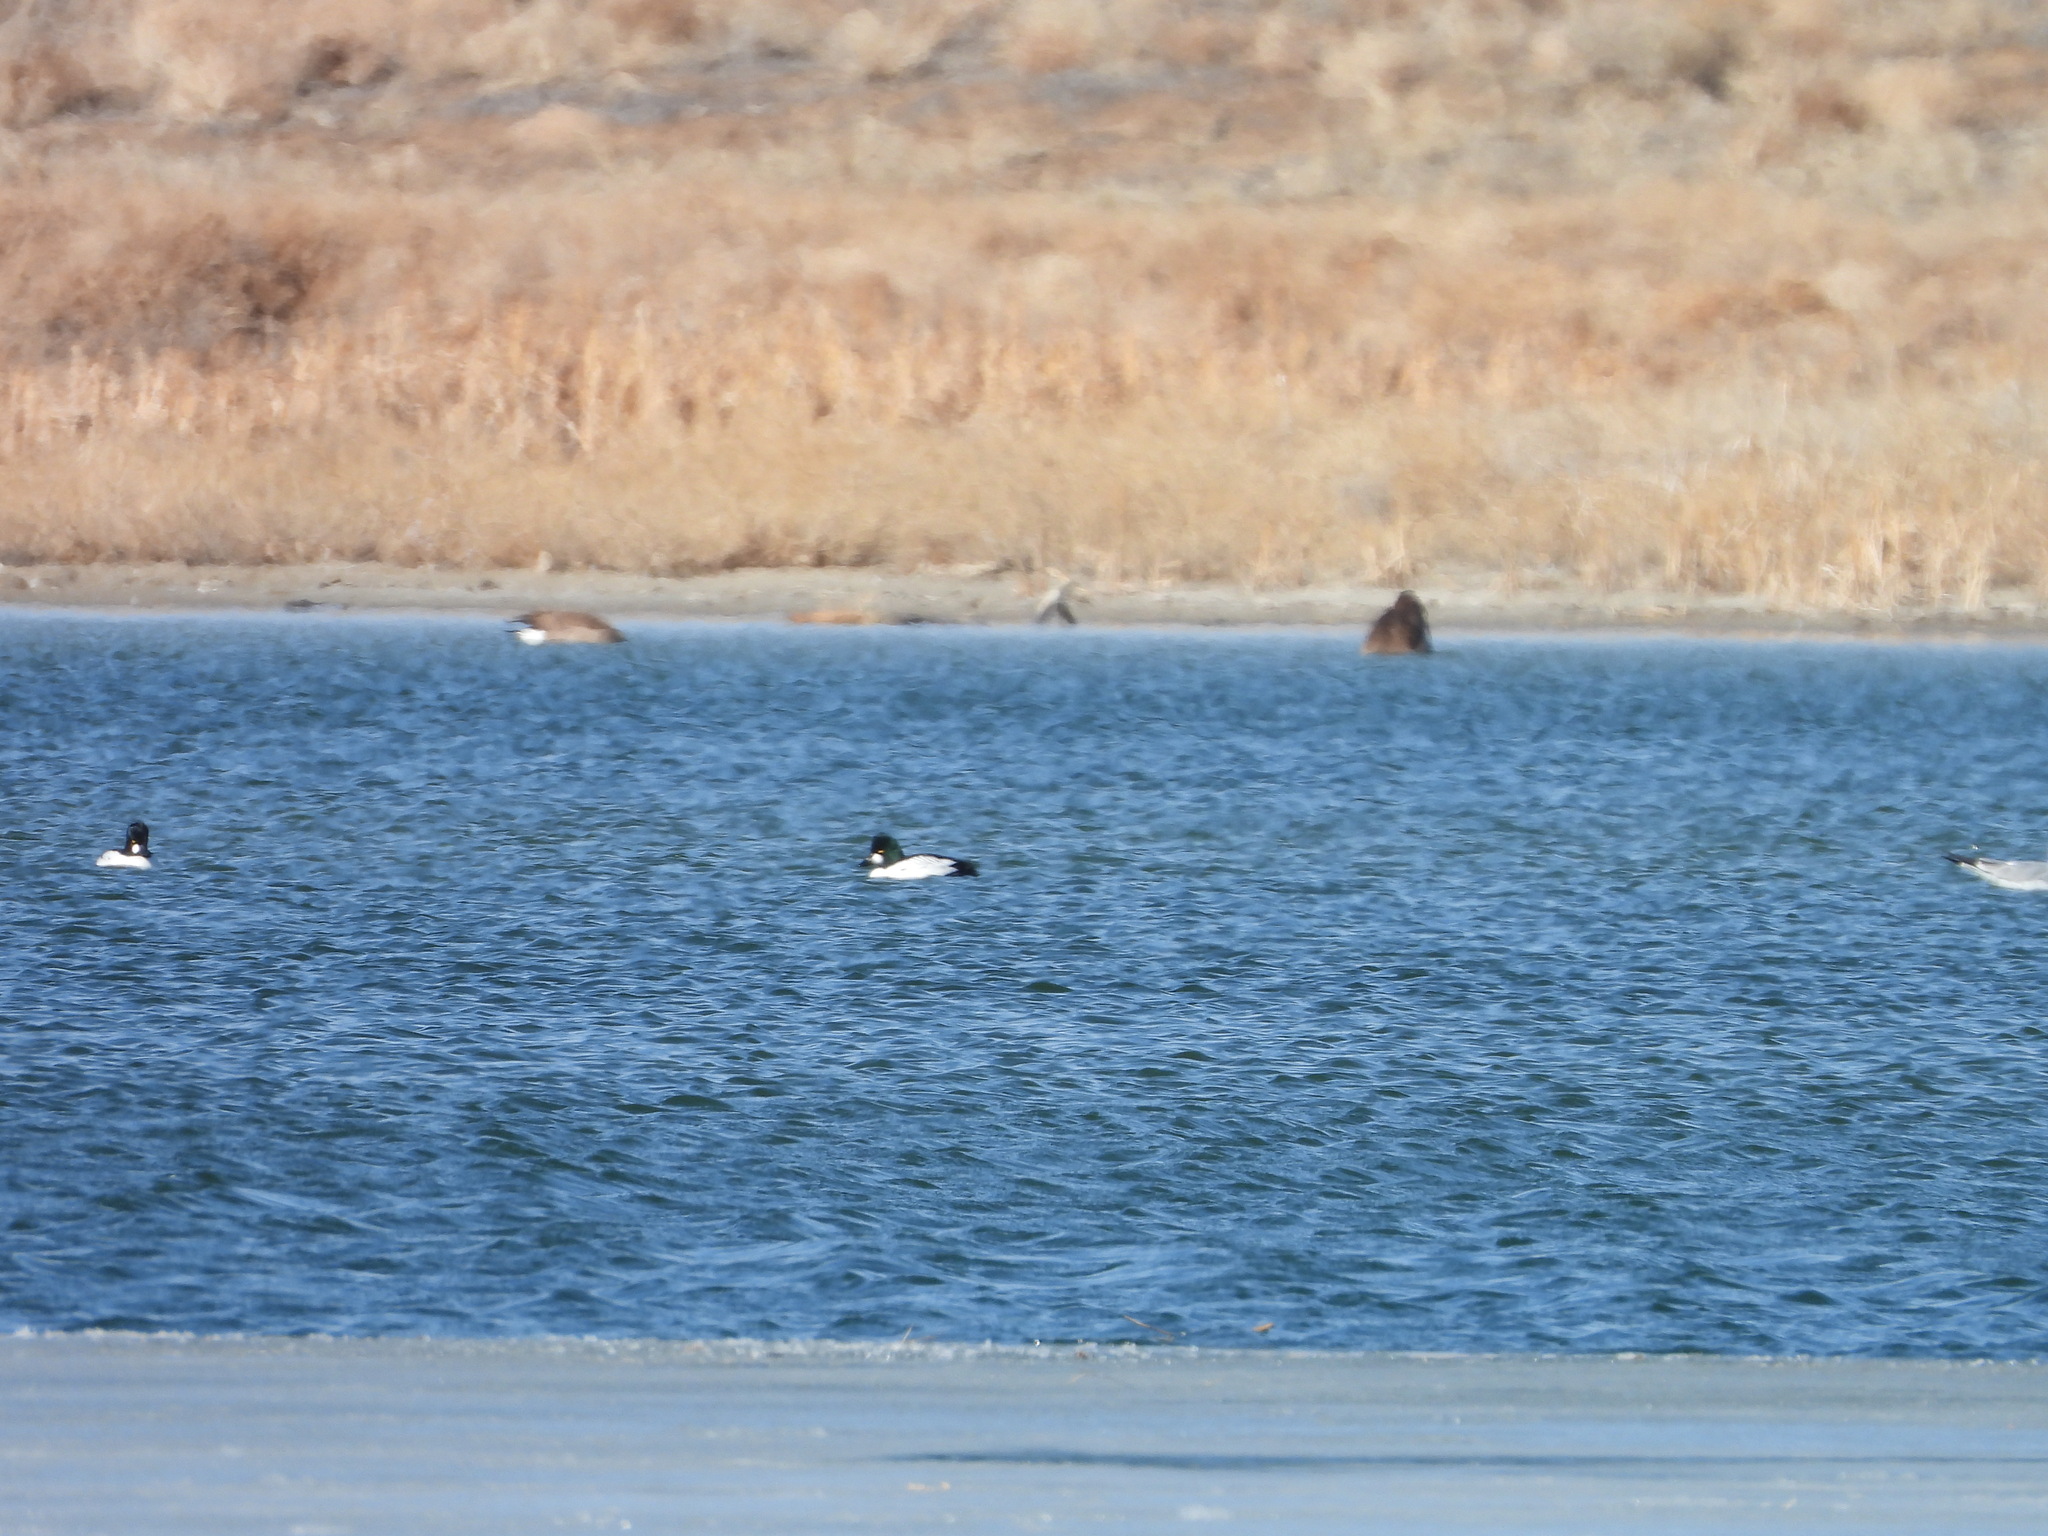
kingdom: Animalia
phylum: Chordata
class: Aves
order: Anseriformes
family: Anatidae
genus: Bucephala
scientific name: Bucephala clangula
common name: Common goldeneye
